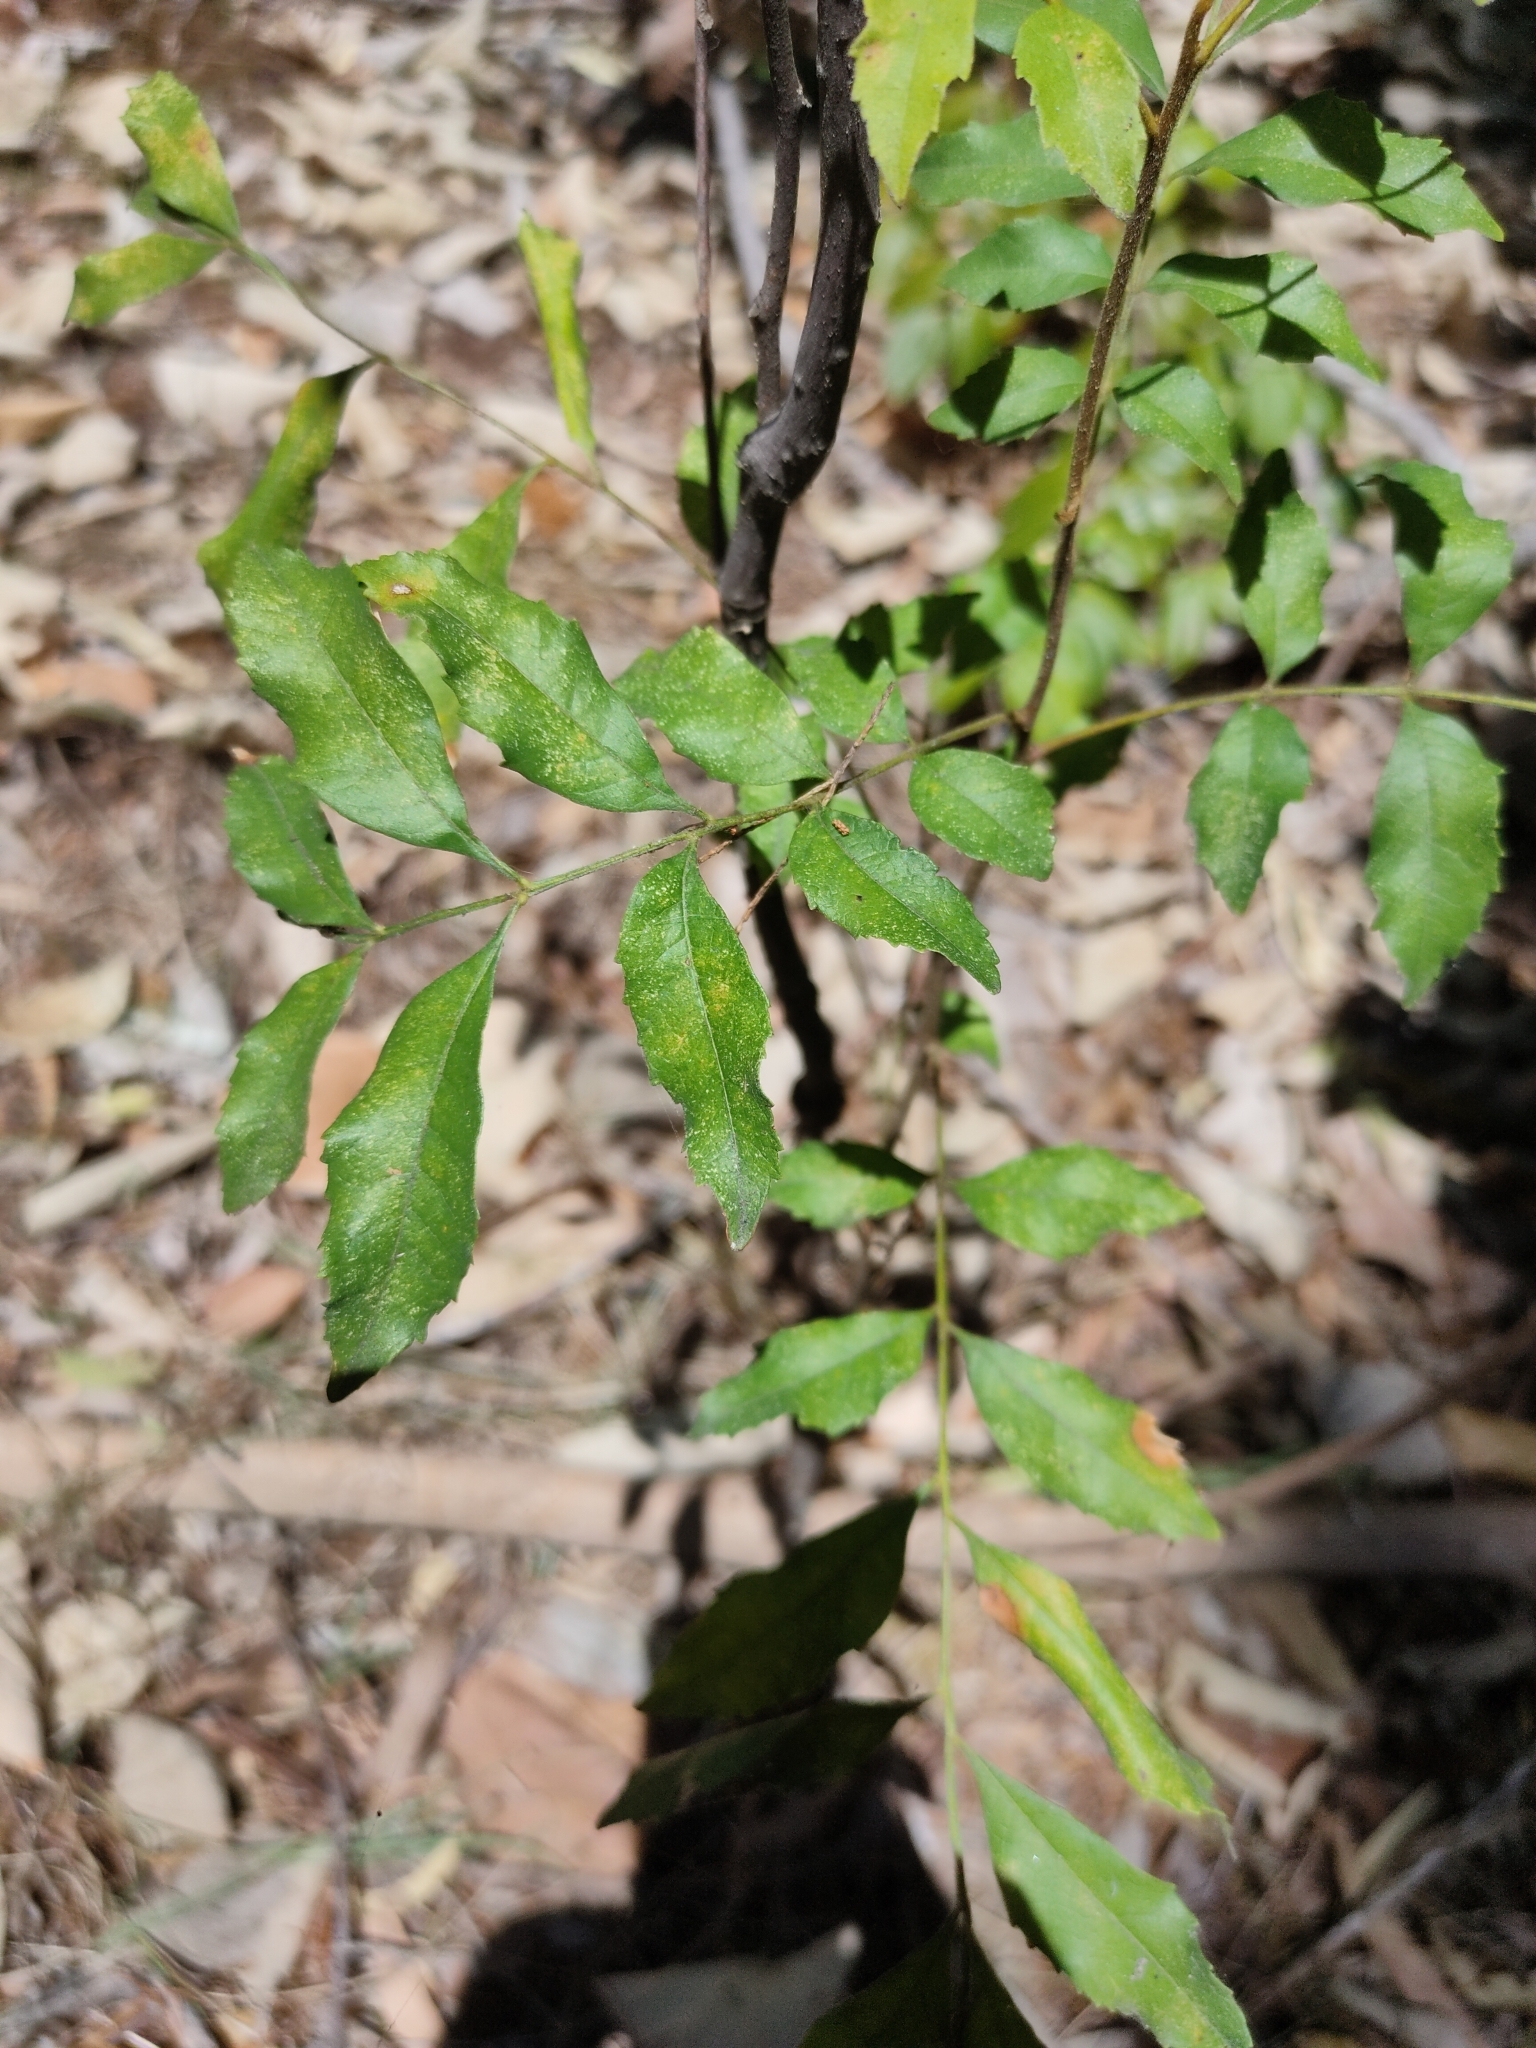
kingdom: Plantae
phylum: Tracheophyta
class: Magnoliopsida
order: Sapindales
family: Sapindaceae
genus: Jagera
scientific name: Jagera pseudorhus
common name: Fern-leaf-tamarind
